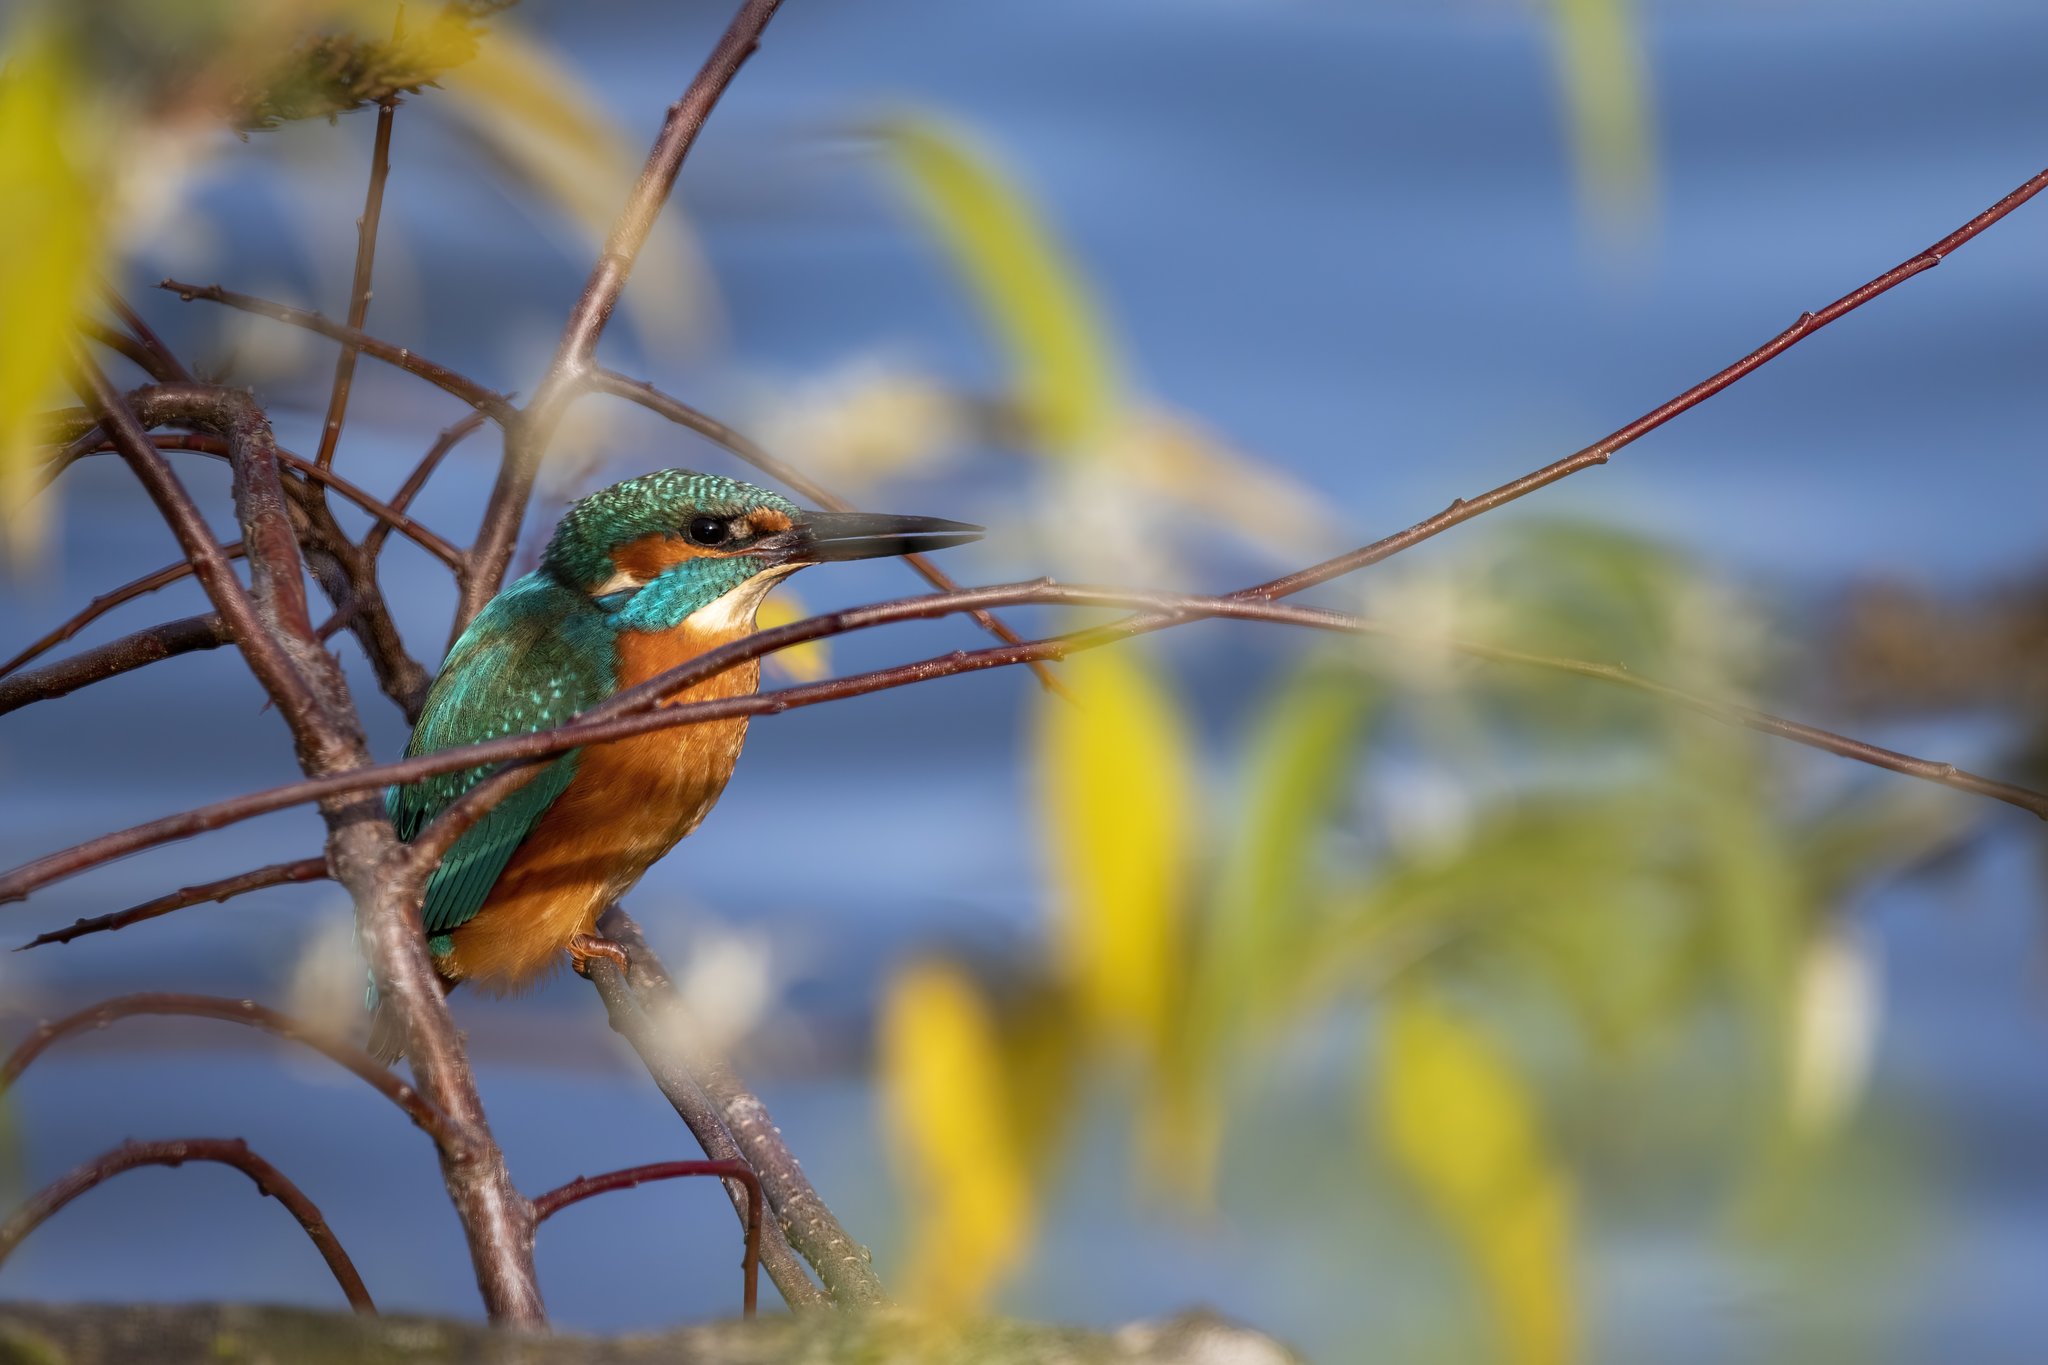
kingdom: Animalia
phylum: Chordata
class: Aves
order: Coraciiformes
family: Alcedinidae
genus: Alcedo
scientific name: Alcedo atthis
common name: Common kingfisher
